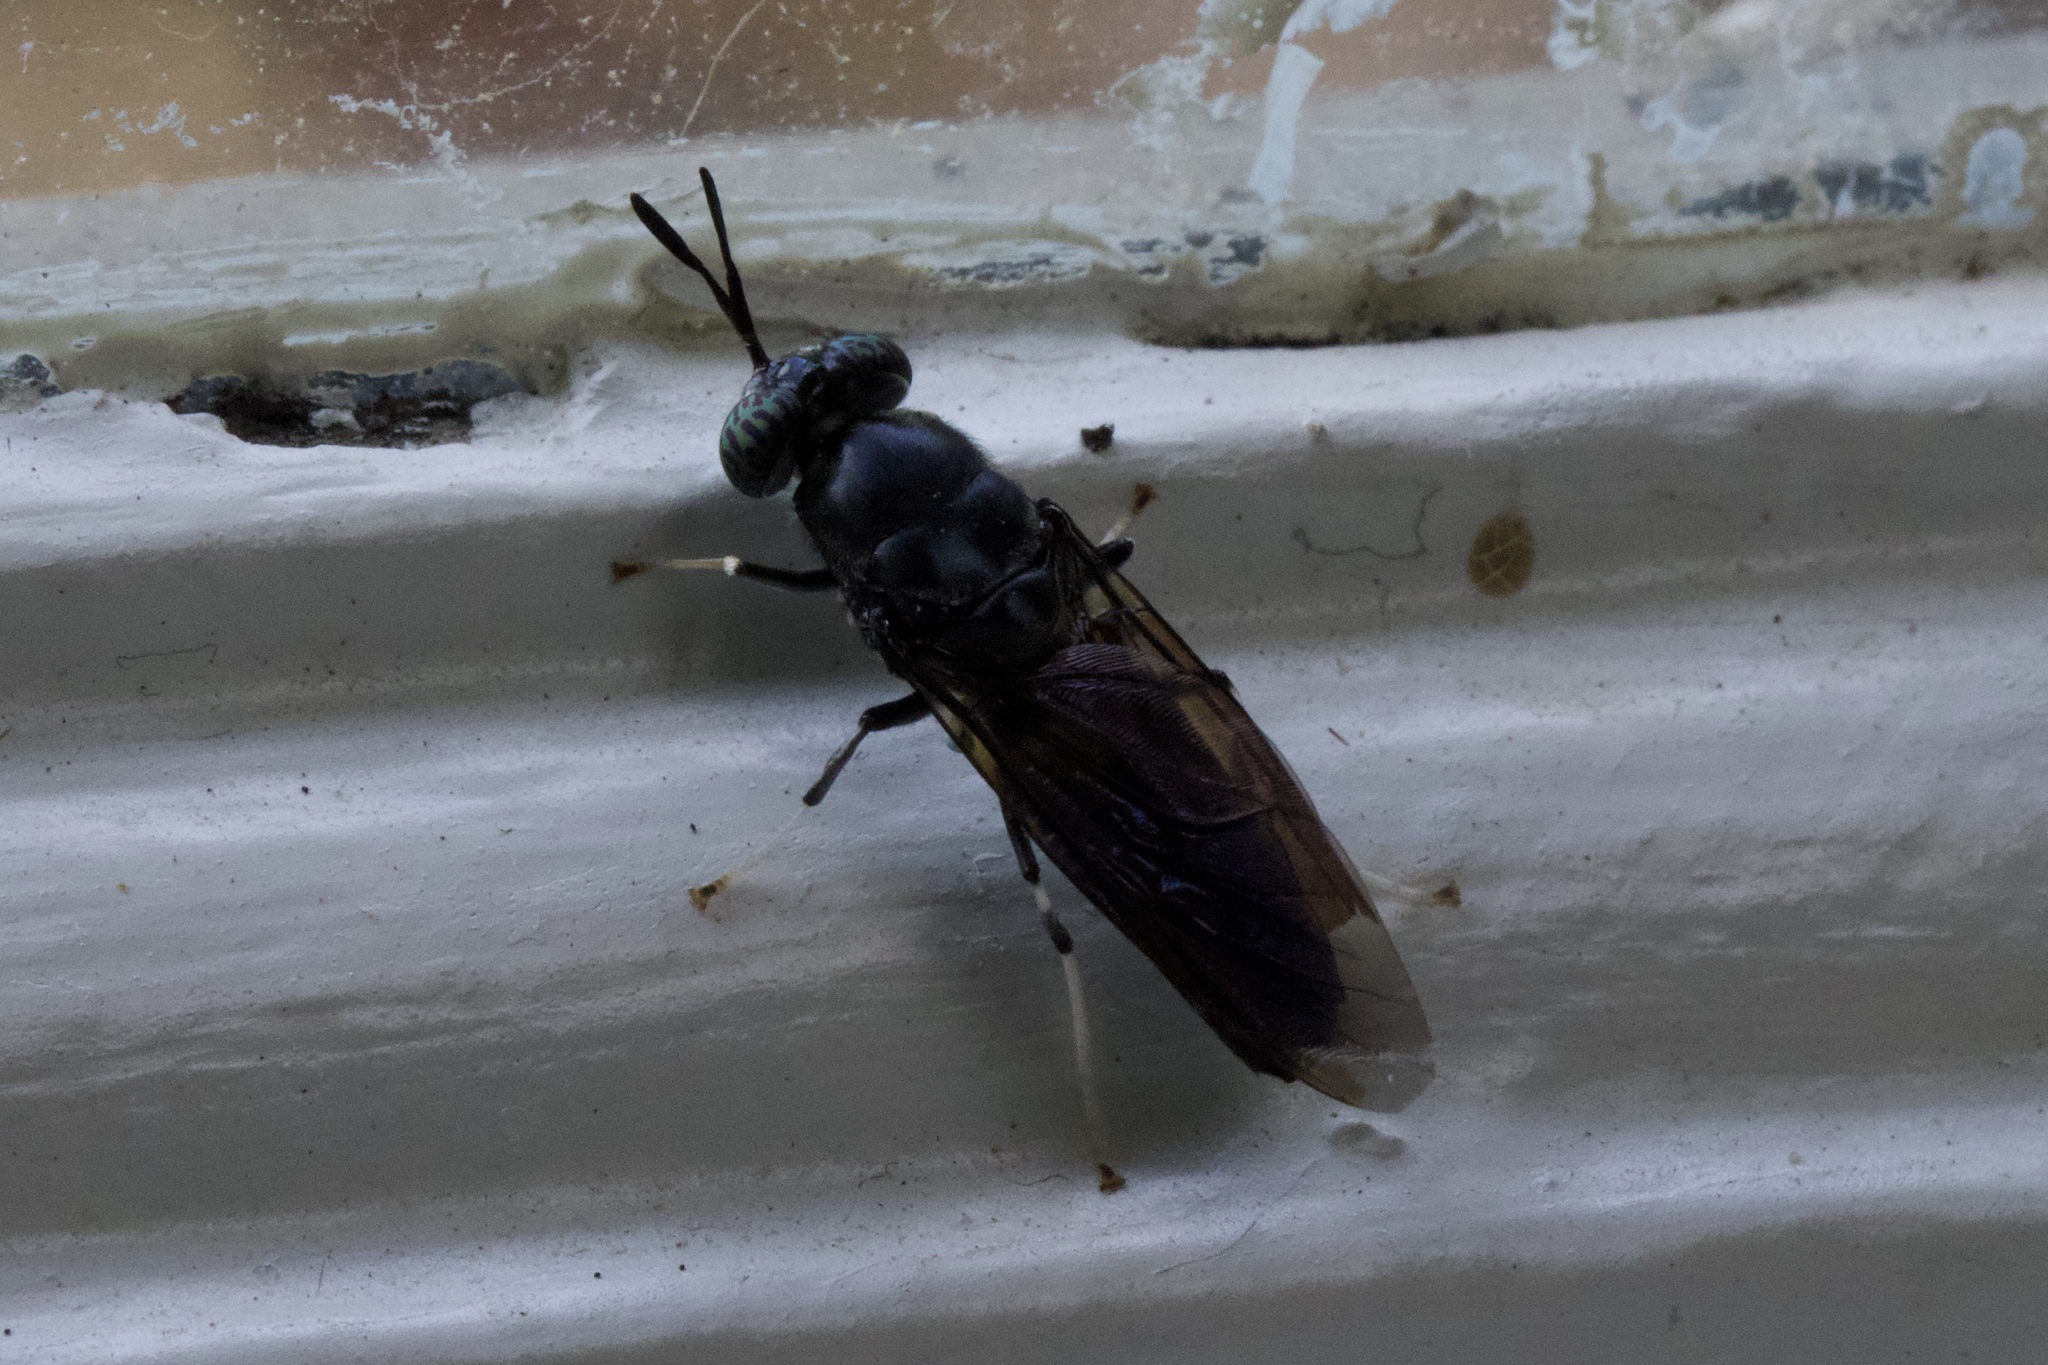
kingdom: Animalia
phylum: Arthropoda
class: Insecta
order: Diptera
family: Stratiomyidae
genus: Hermetia
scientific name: Hermetia illucens
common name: Black soldier fly
